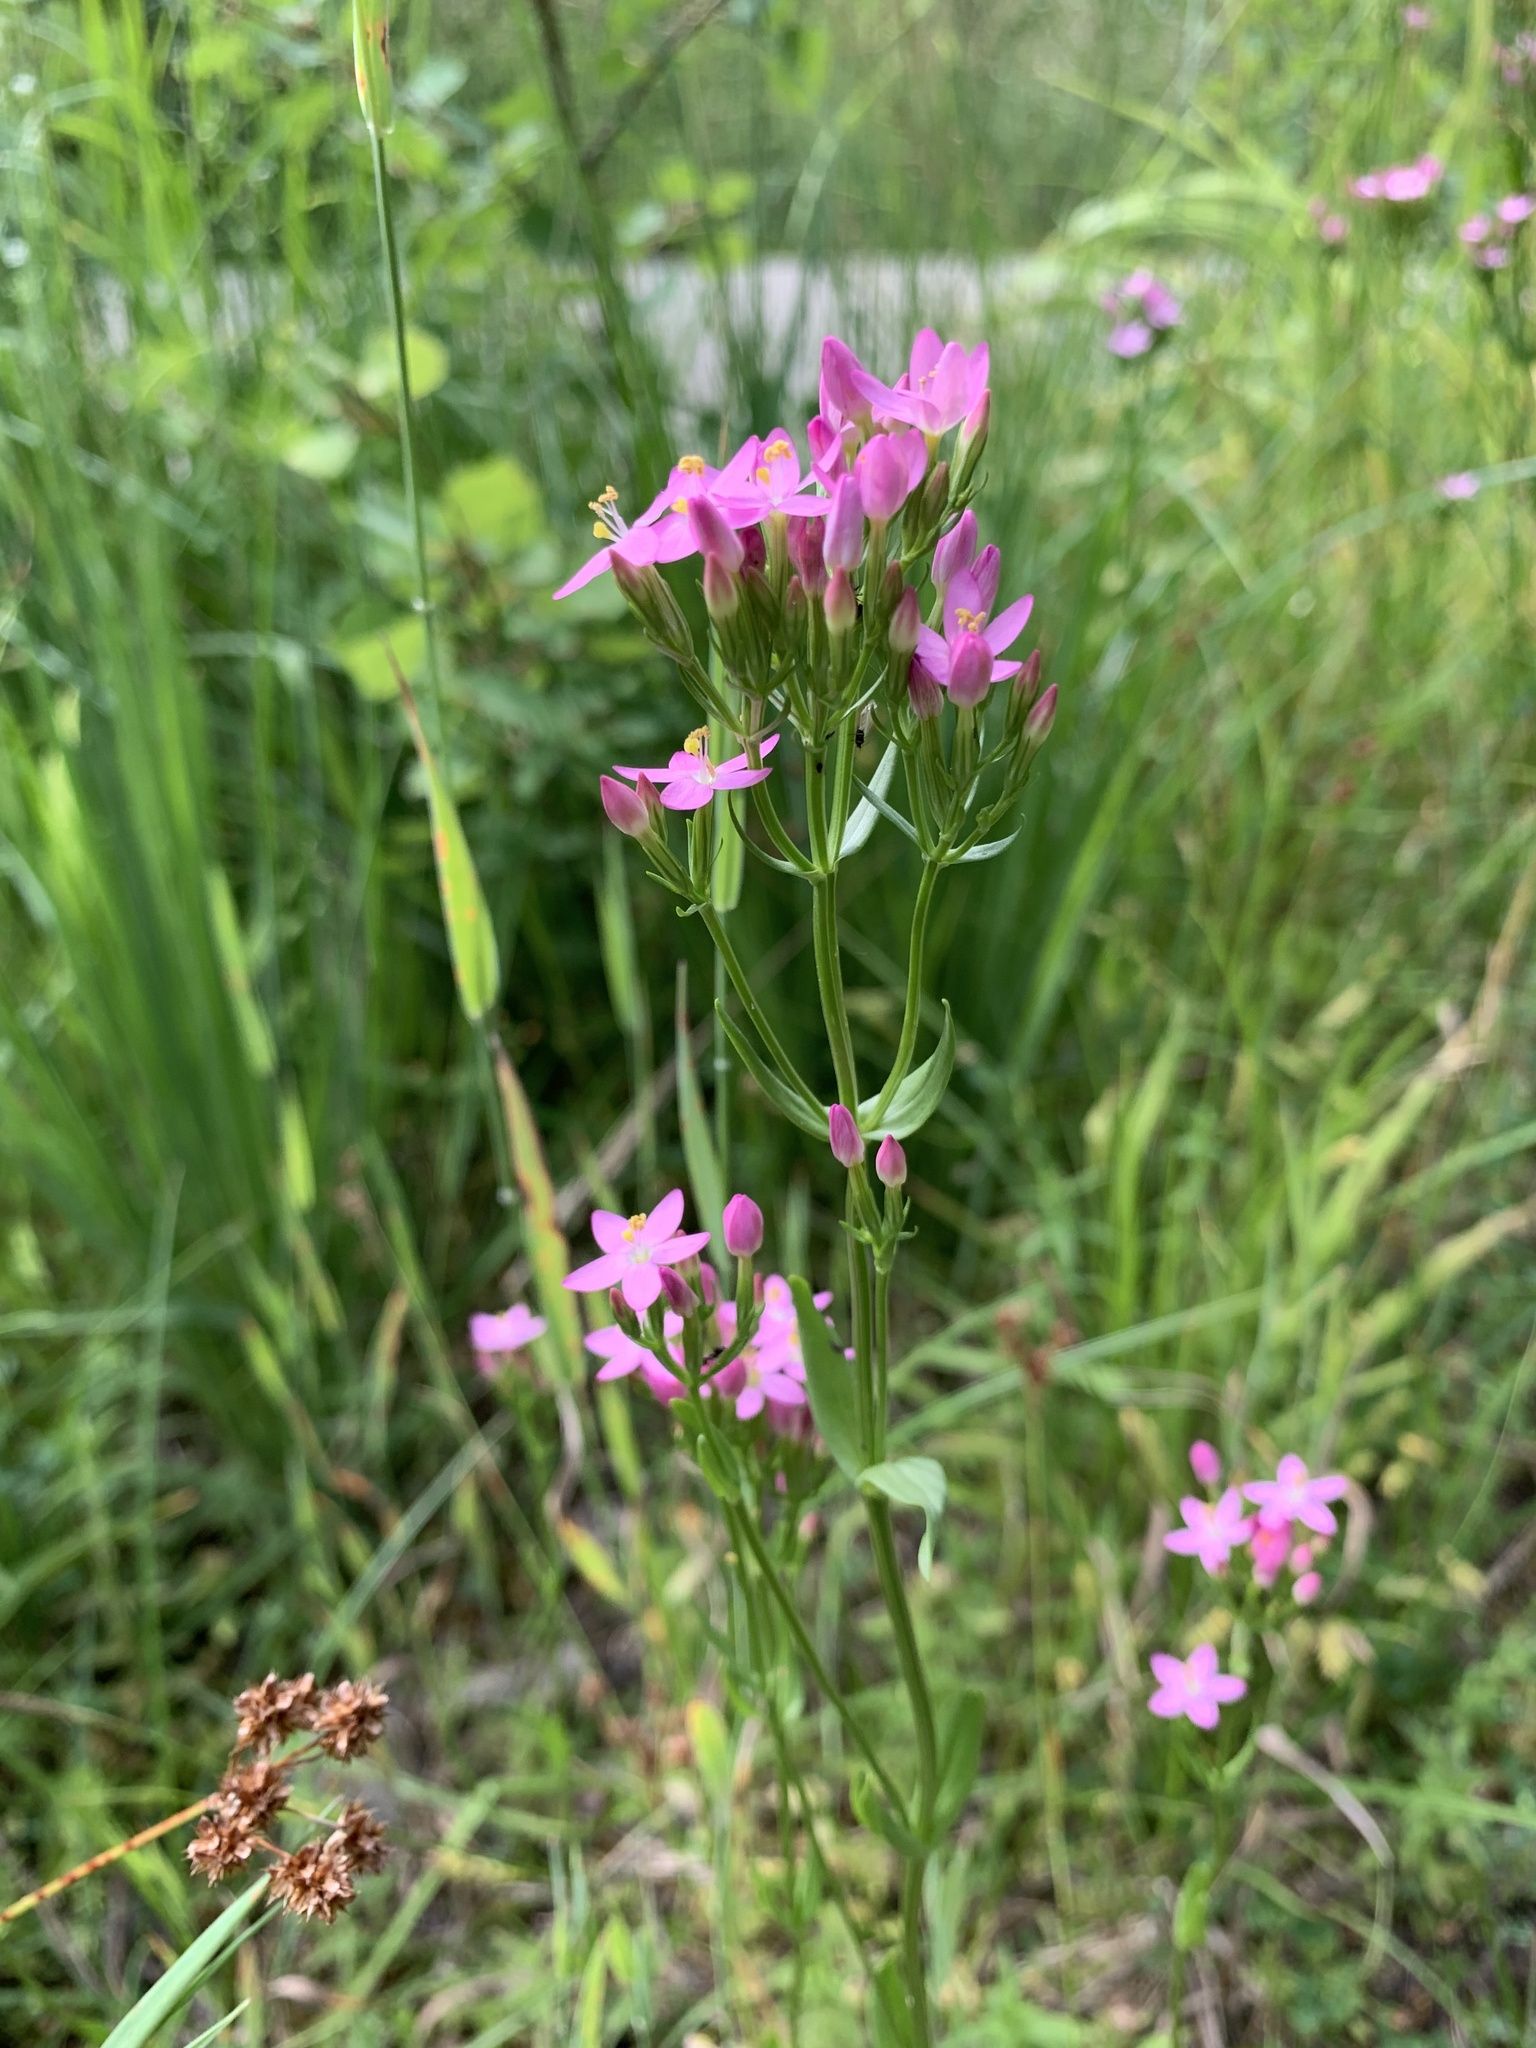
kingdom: Plantae
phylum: Tracheophyta
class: Magnoliopsida
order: Gentianales
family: Gentianaceae
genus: Centaurium
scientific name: Centaurium erythraea
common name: Common centaury
